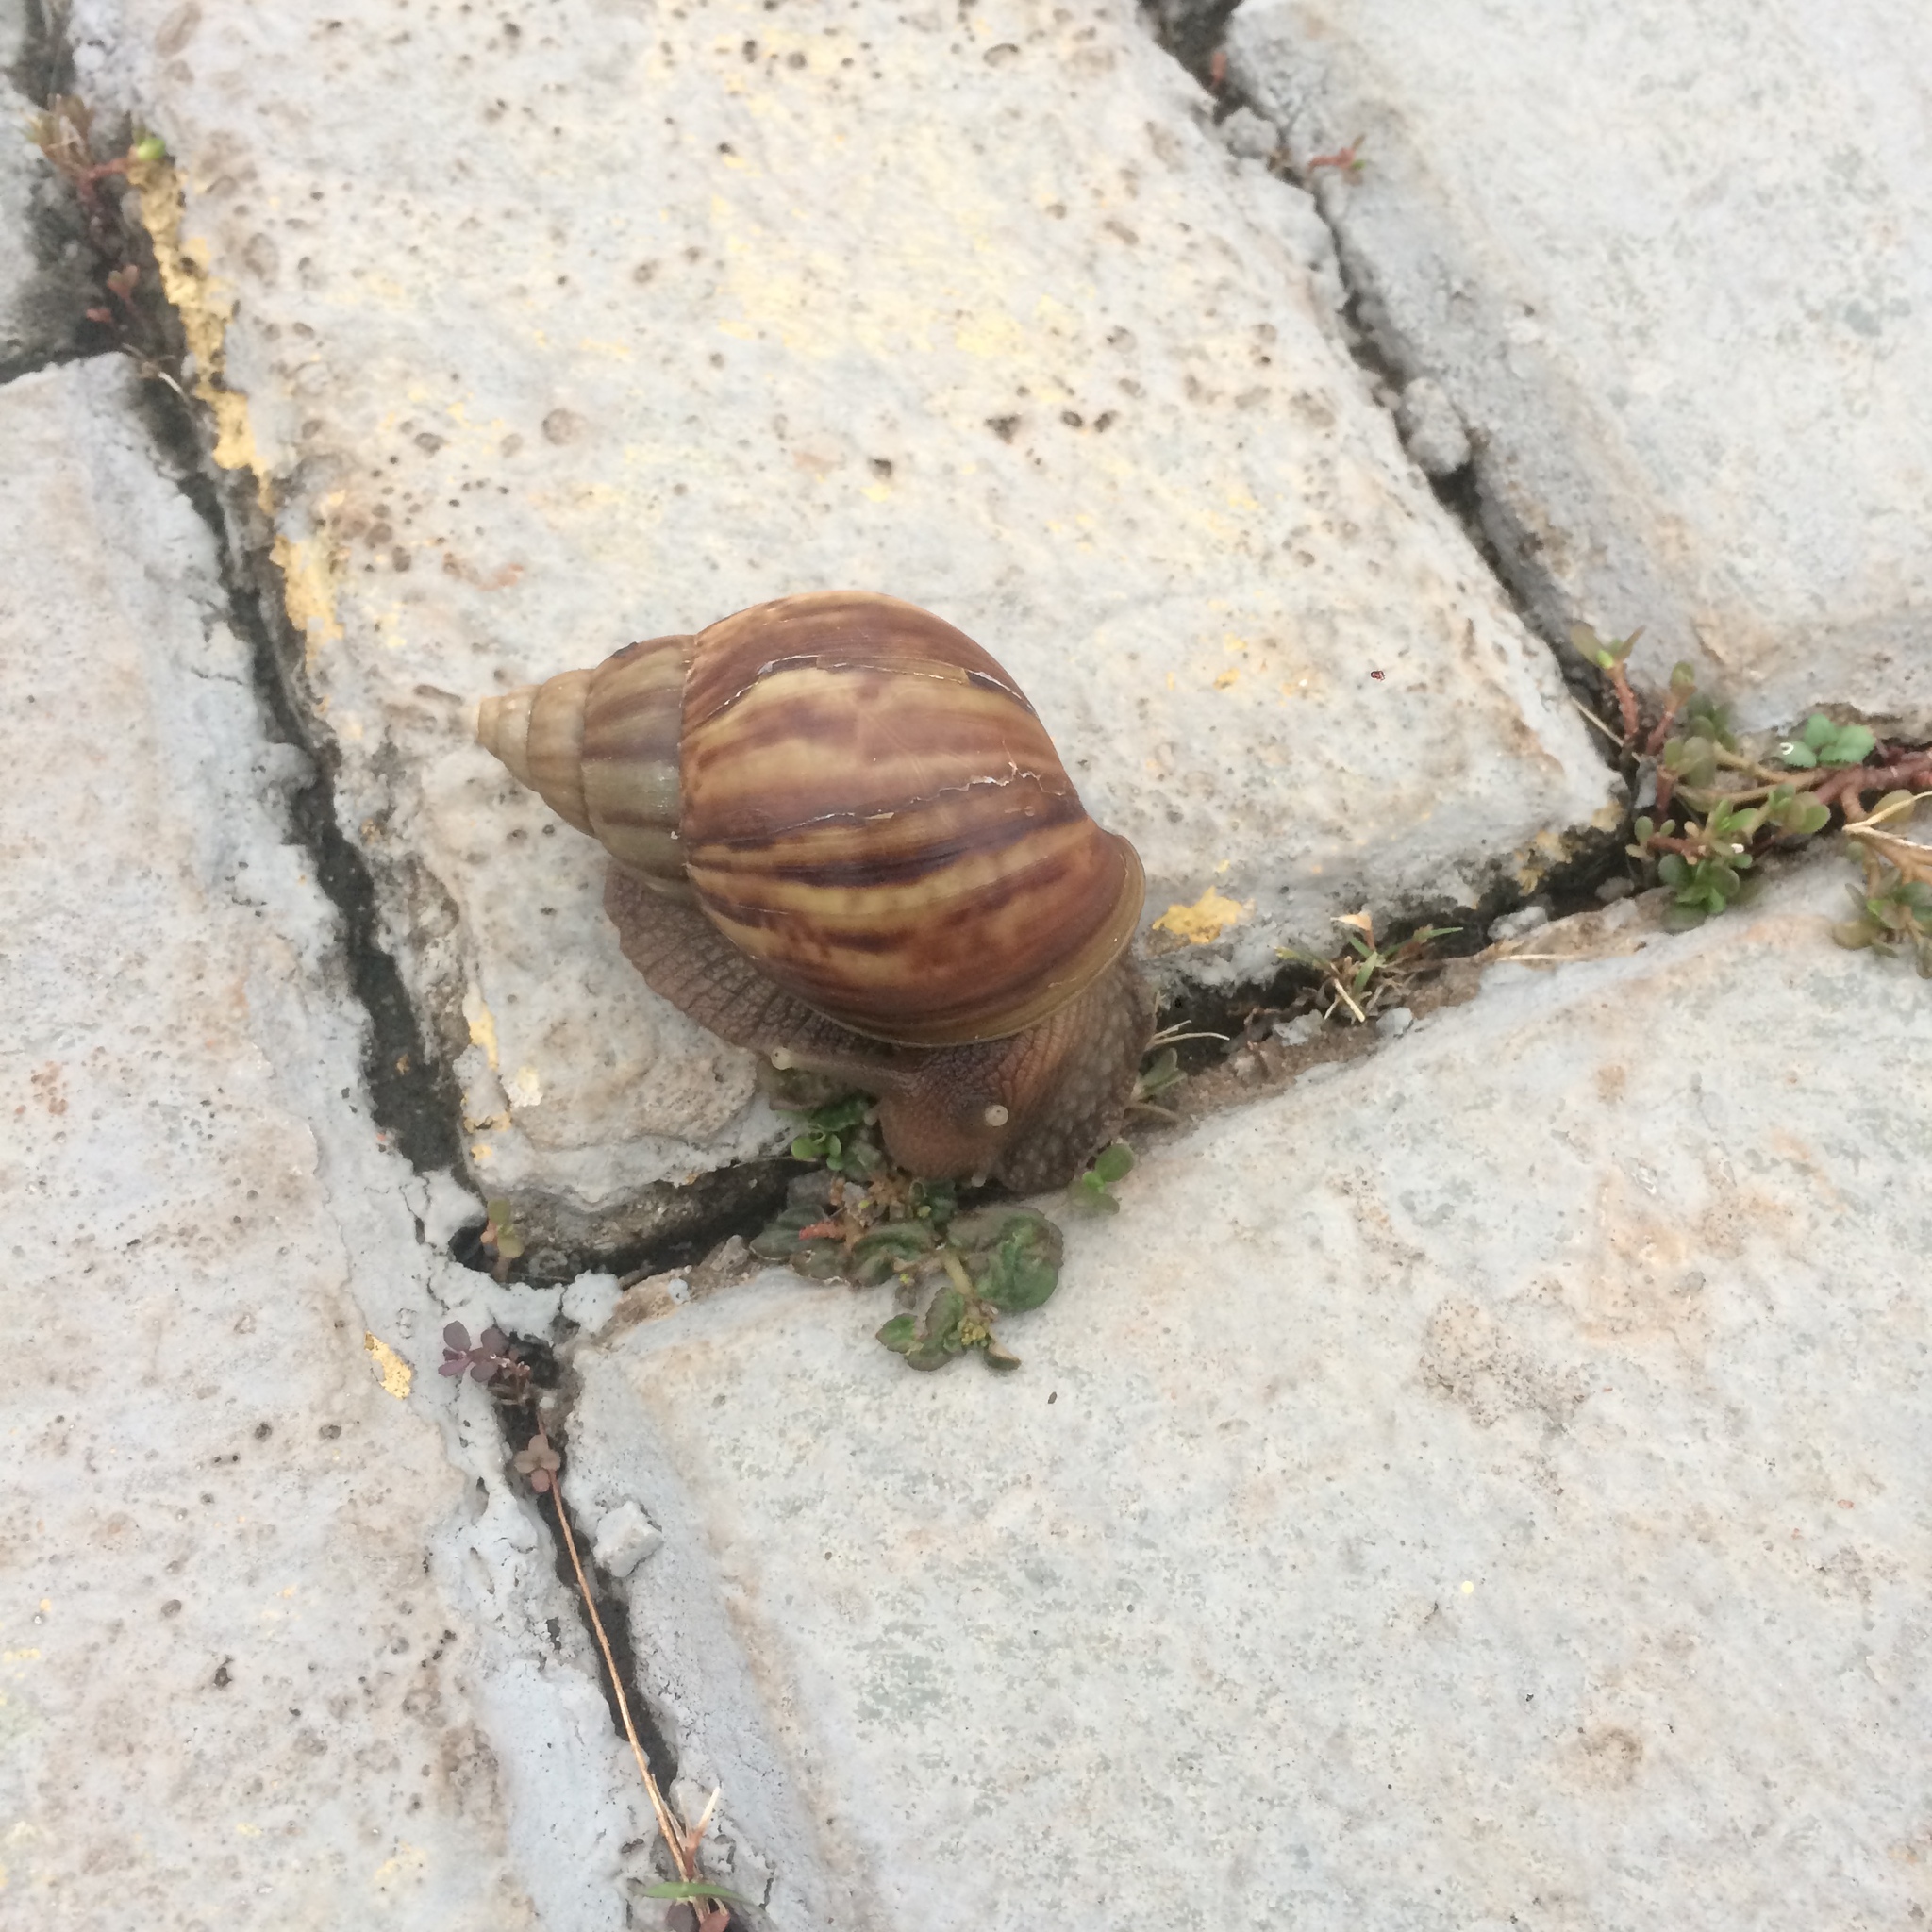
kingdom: Animalia
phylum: Mollusca
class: Gastropoda
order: Stylommatophora
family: Achatinidae
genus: Lissachatina
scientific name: Lissachatina fulica
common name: Giant african snail
